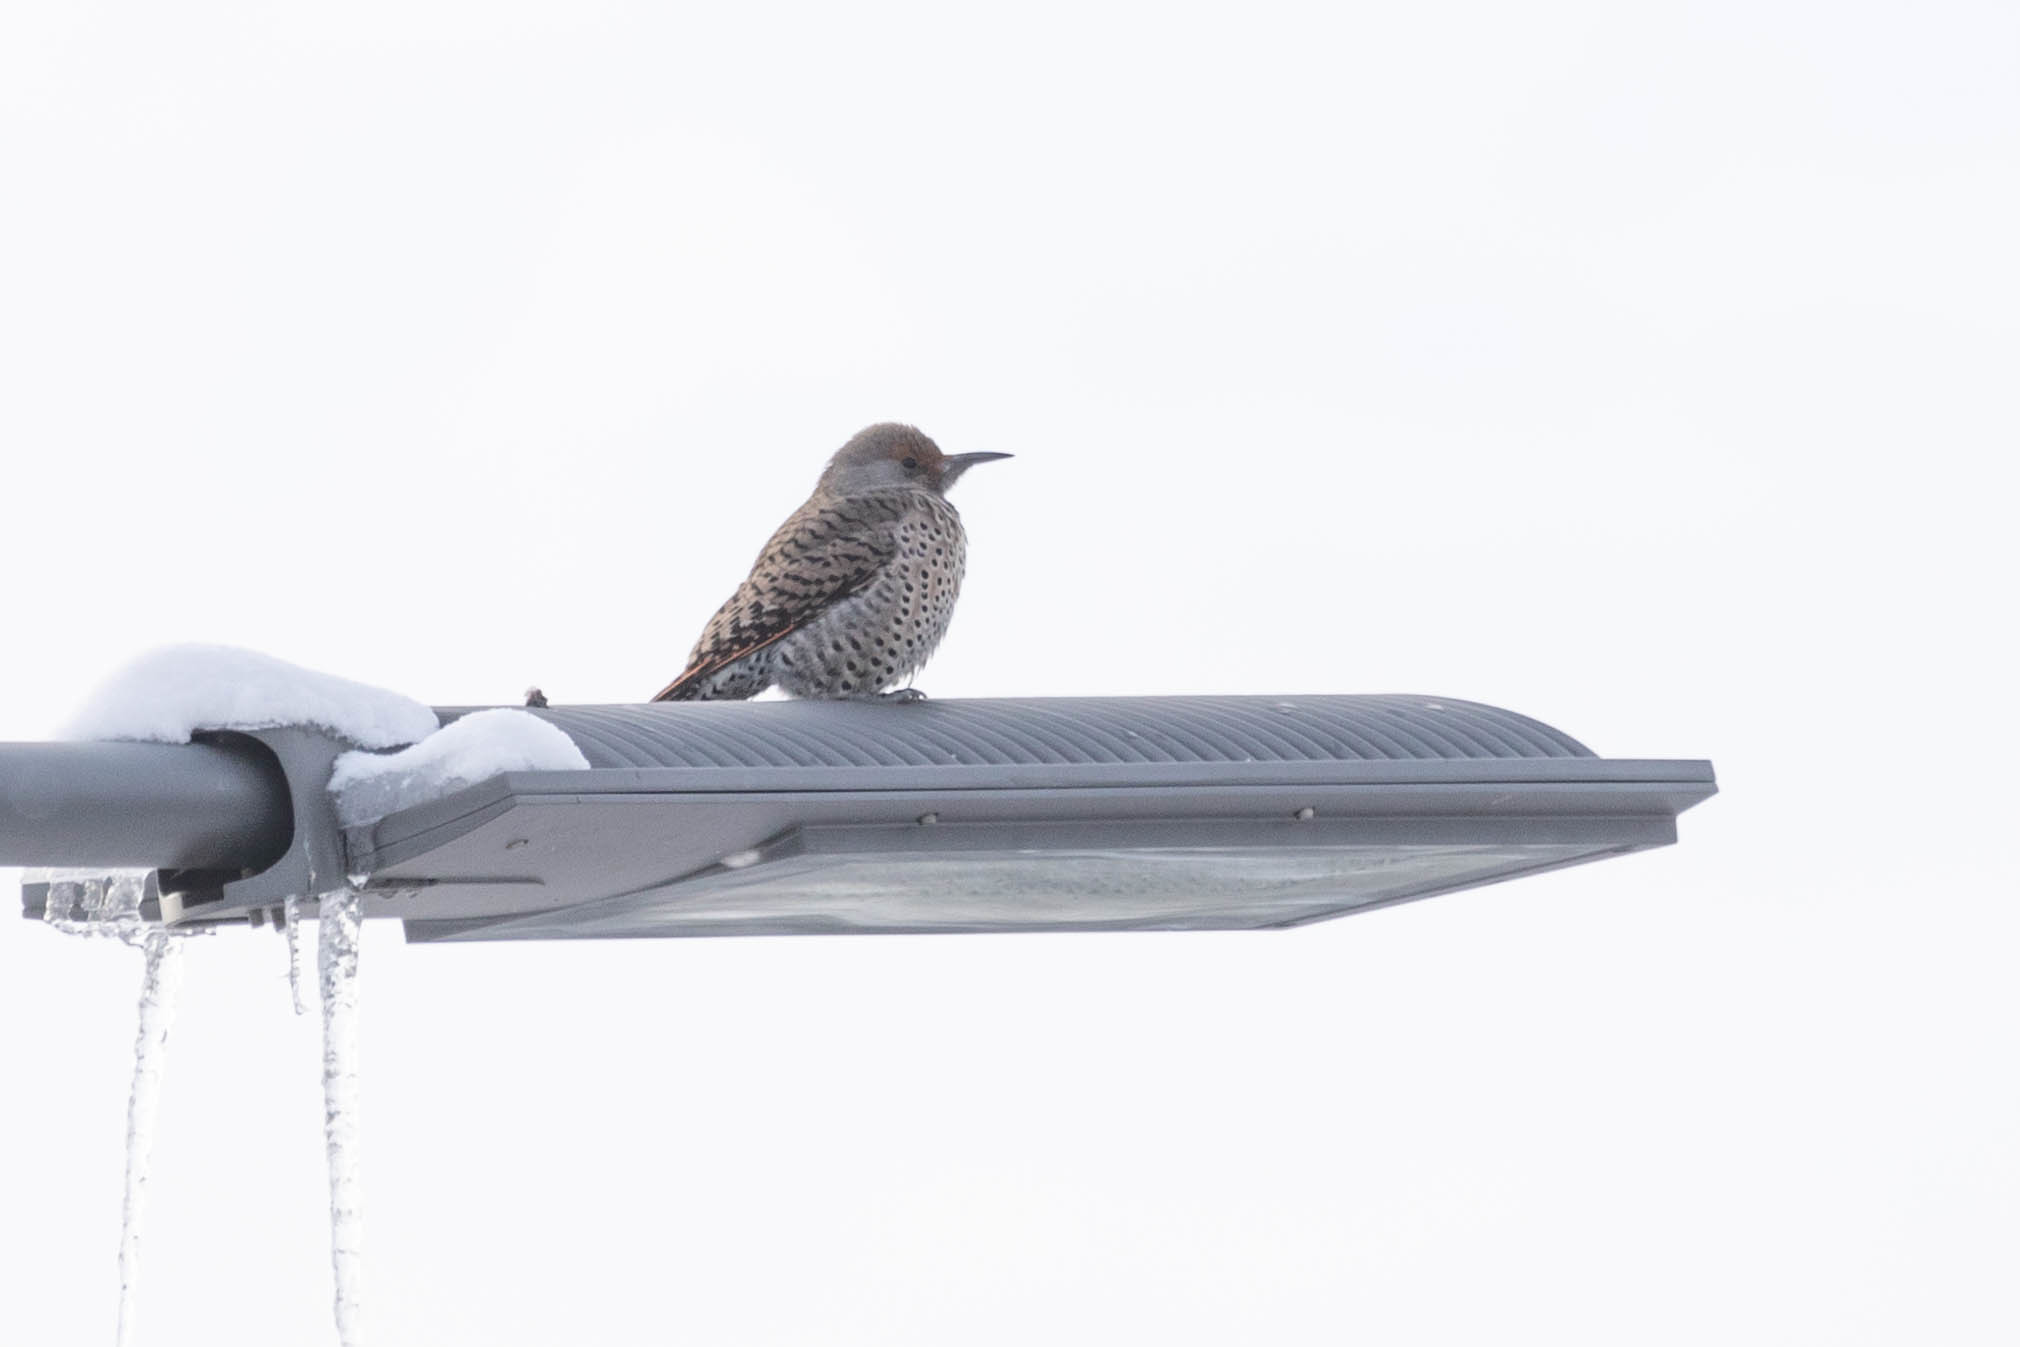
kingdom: Animalia
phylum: Chordata
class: Aves
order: Piciformes
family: Picidae
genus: Colaptes
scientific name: Colaptes auratus
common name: Northern flicker
